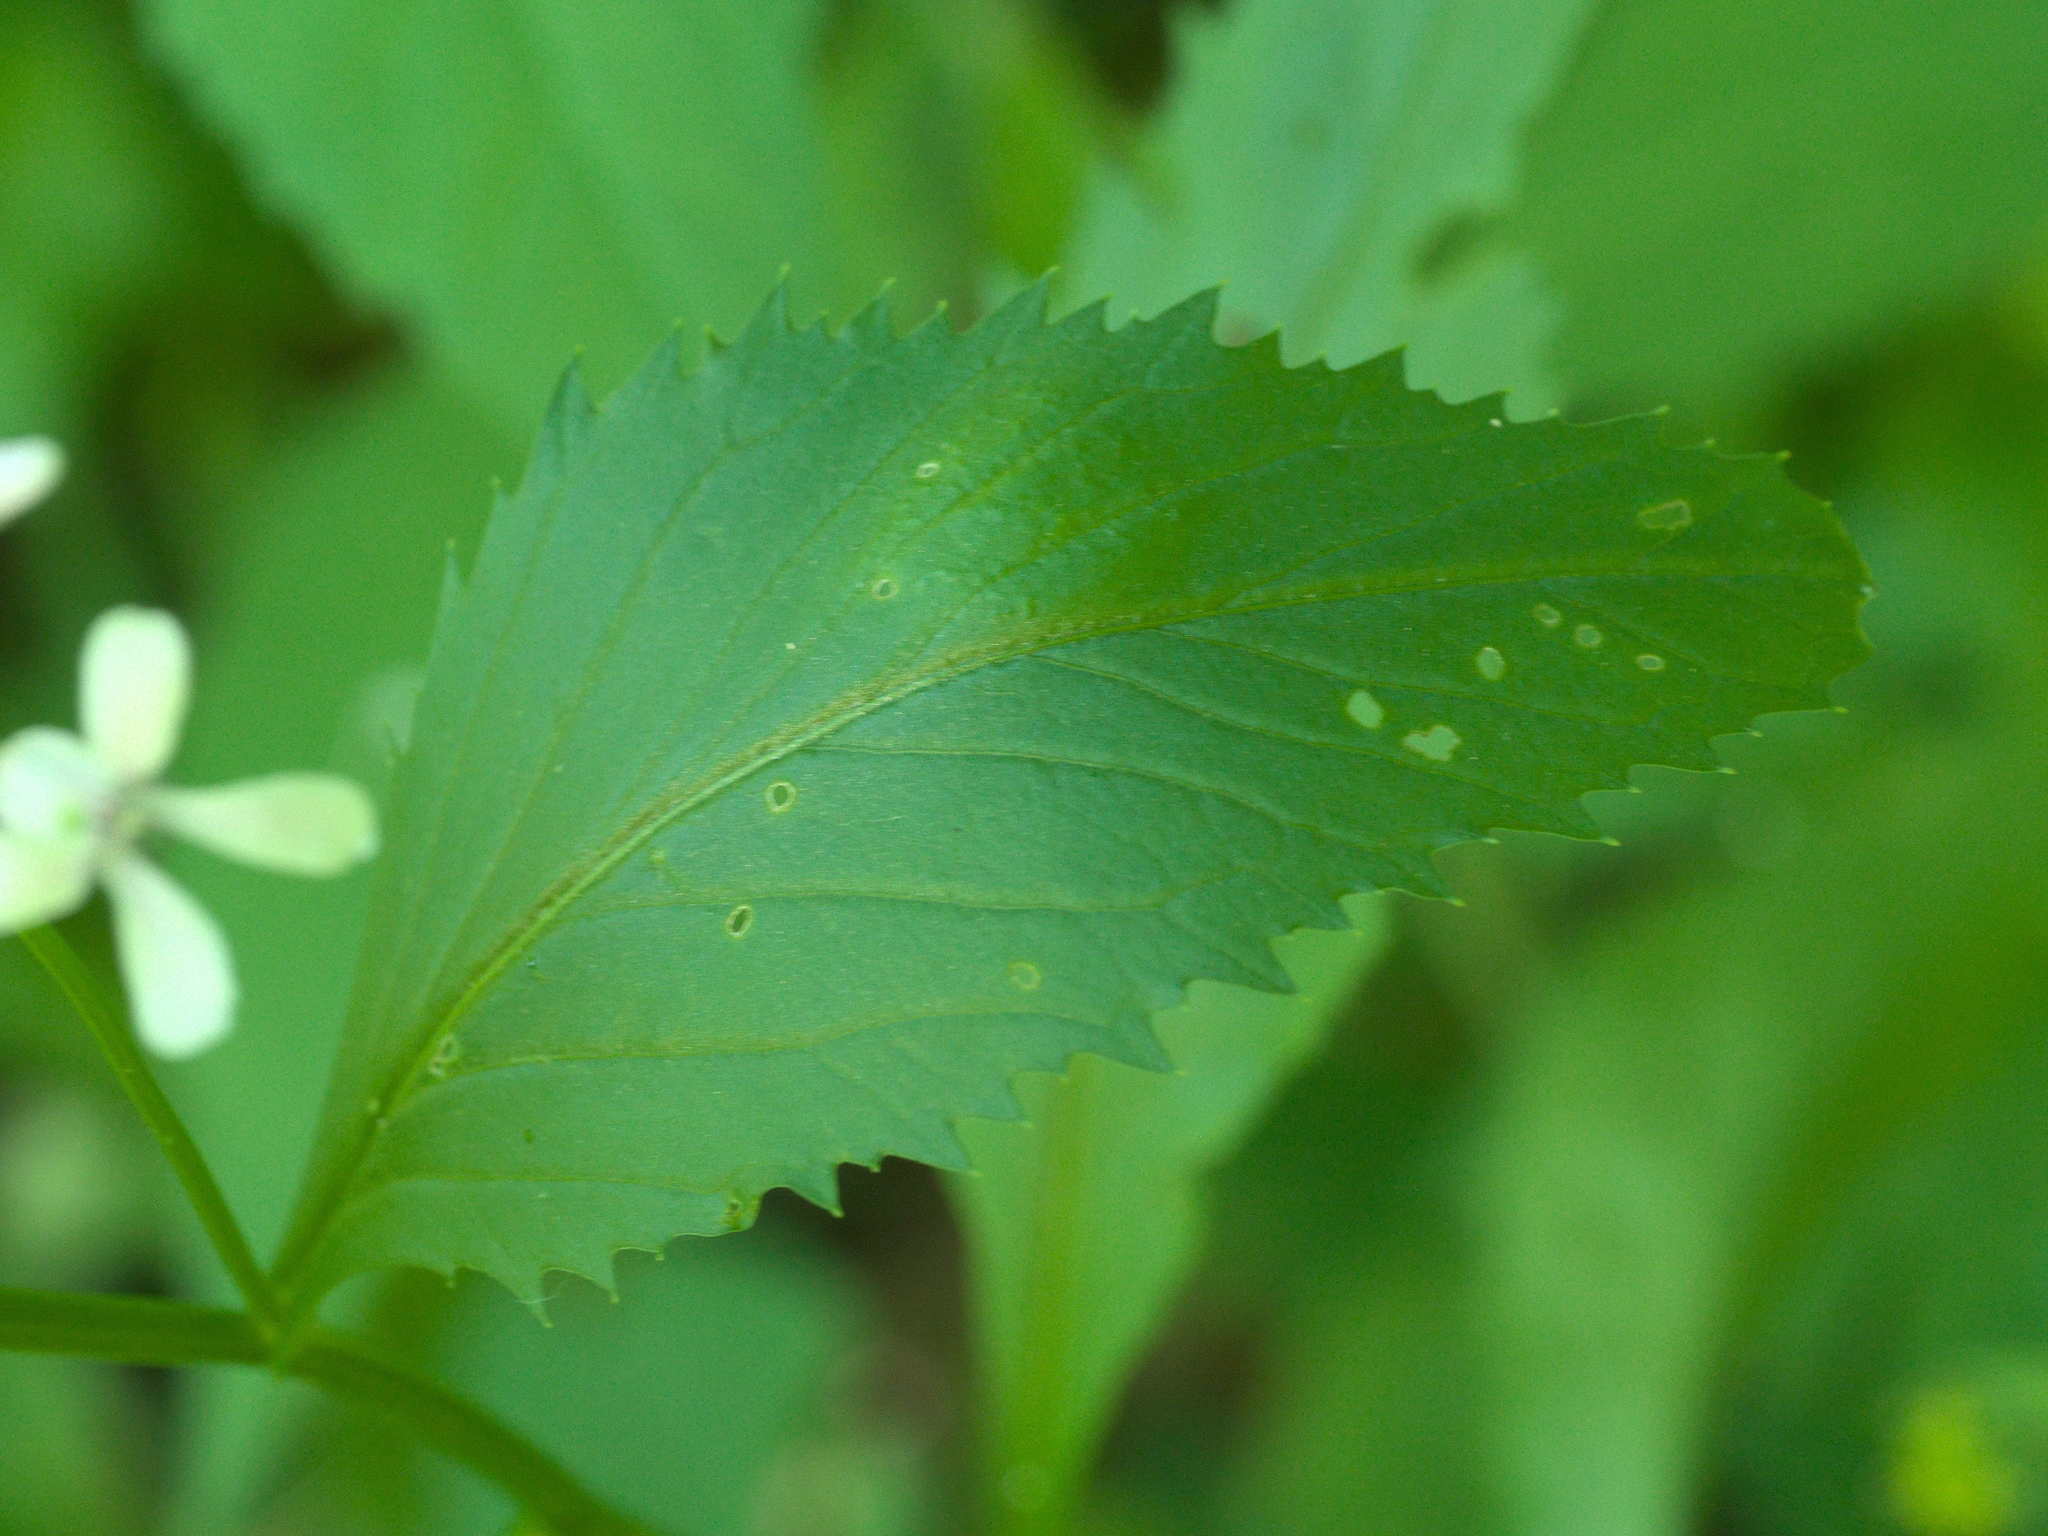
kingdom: Plantae
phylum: Tracheophyta
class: Magnoliopsida
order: Brassicales
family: Brassicaceae
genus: Iodanthus
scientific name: Iodanthus pinnatifidus
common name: Violet rocket
